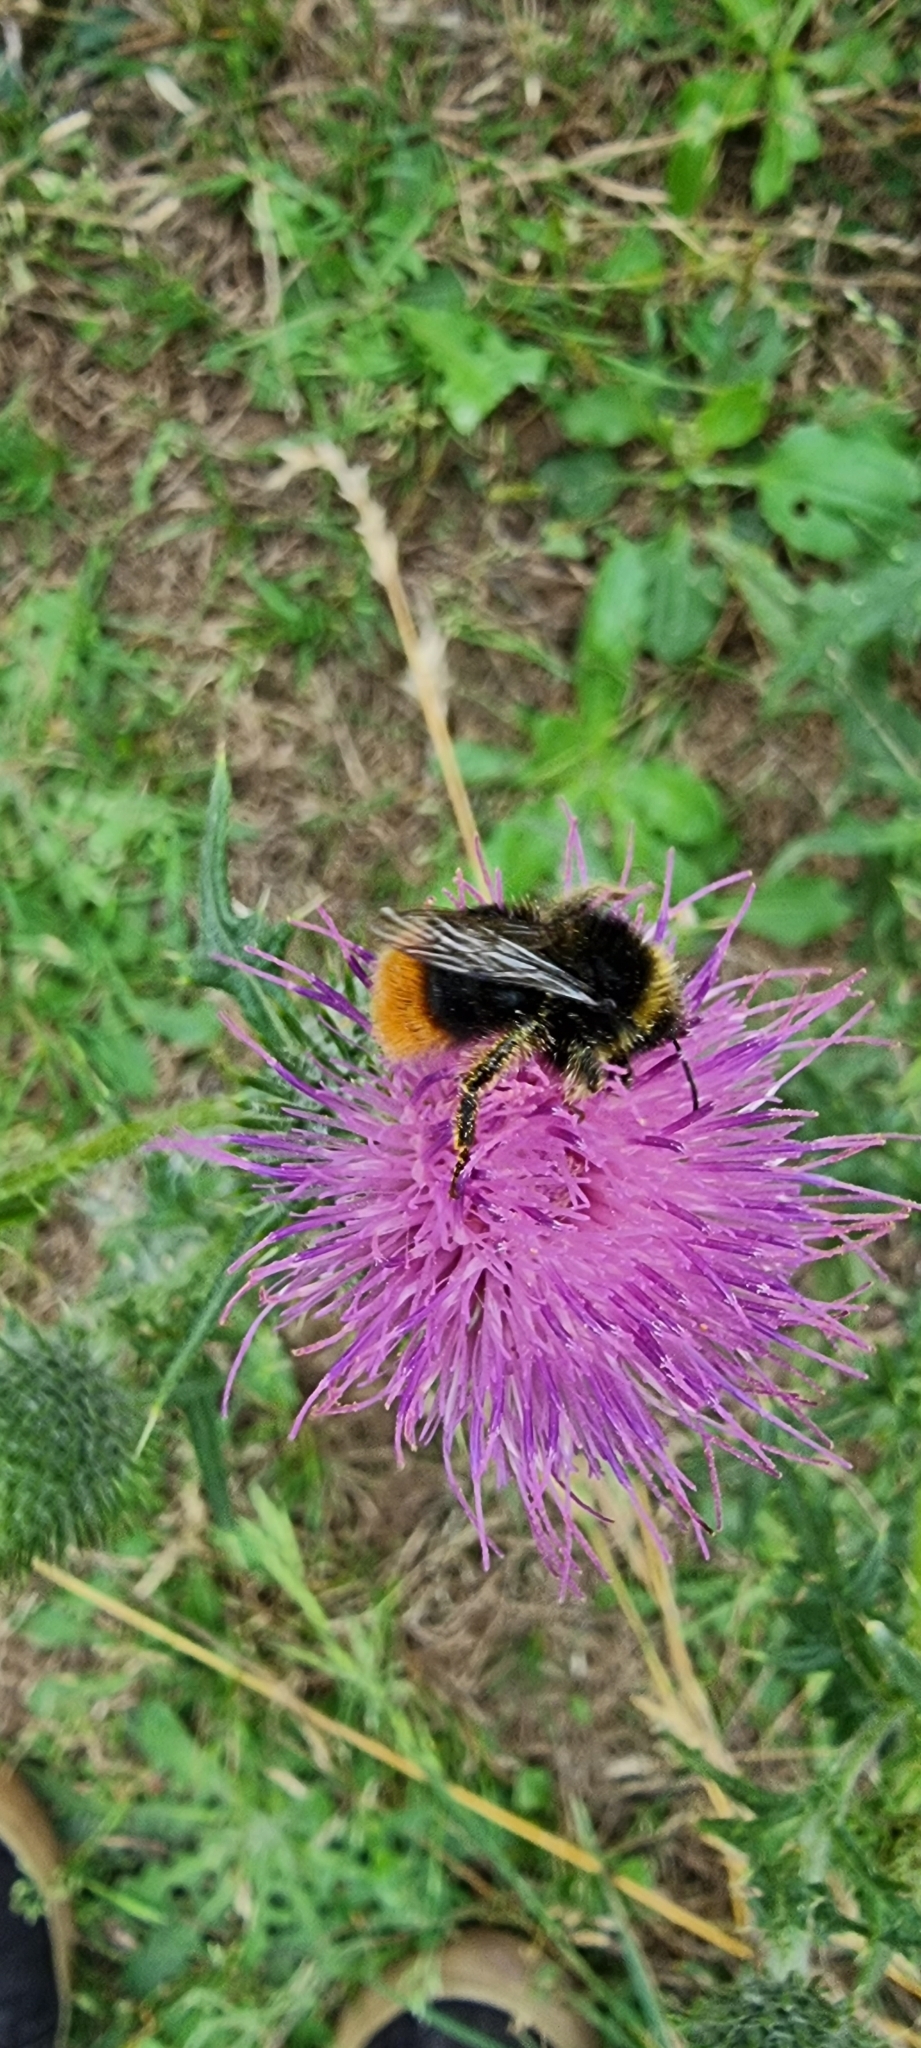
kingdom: Animalia
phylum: Arthropoda
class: Insecta
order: Hymenoptera
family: Apidae
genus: Bombus
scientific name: Bombus lapidarius
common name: Large red-tailed humble-bee
